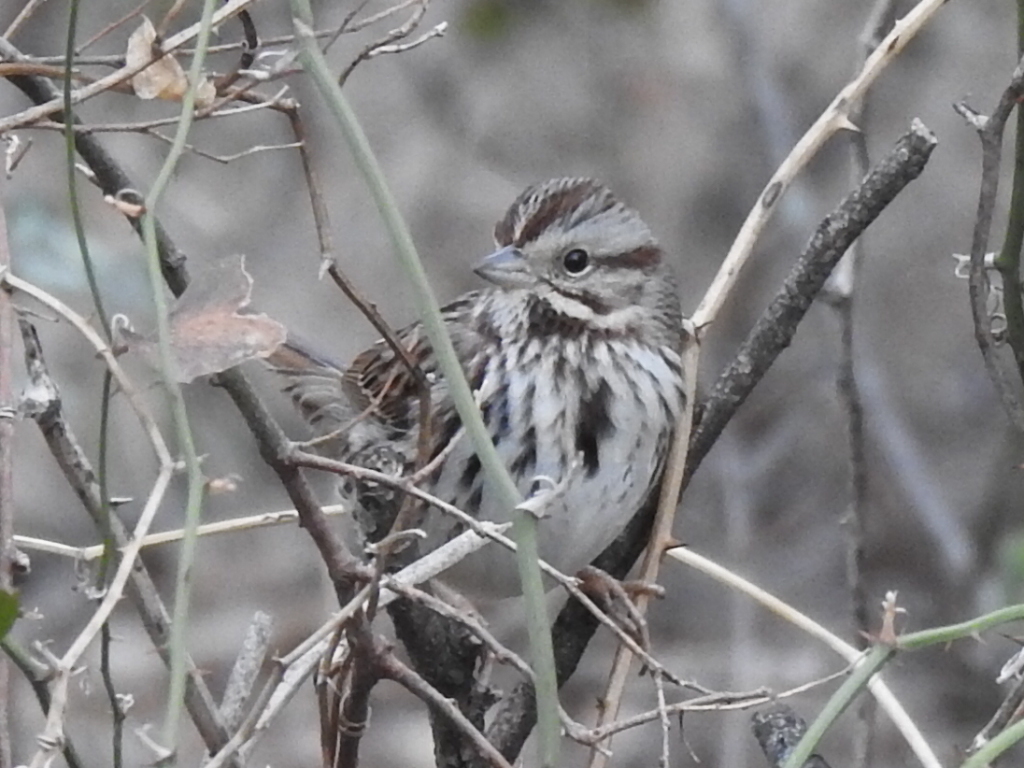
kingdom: Animalia
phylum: Chordata
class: Aves
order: Passeriformes
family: Passerellidae
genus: Melospiza
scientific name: Melospiza melodia
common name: Song sparrow
